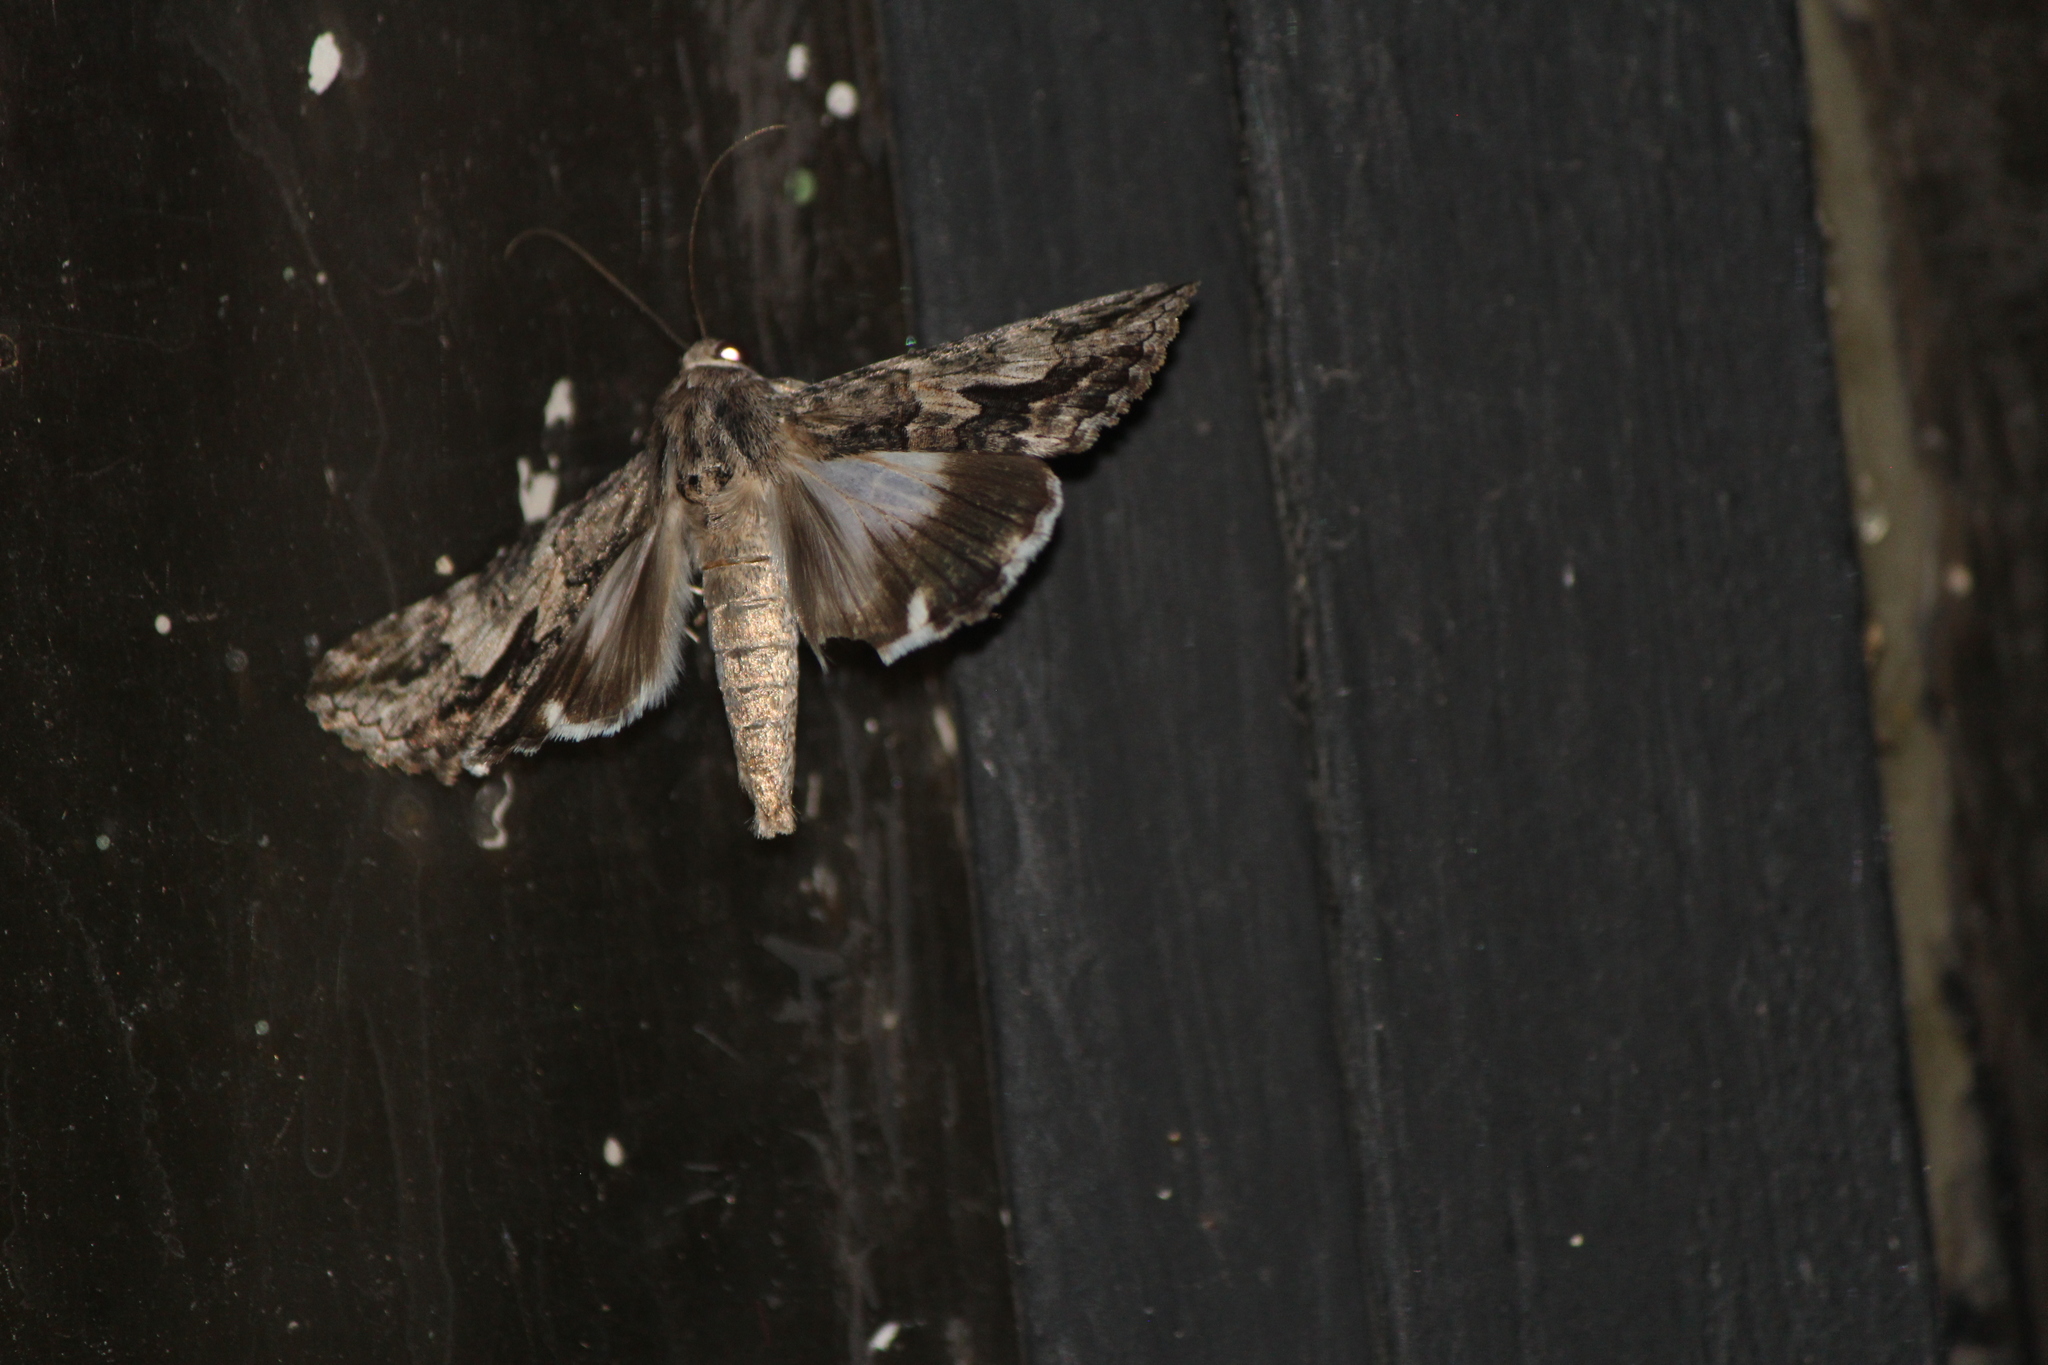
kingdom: Animalia
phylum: Arthropoda
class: Insecta
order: Lepidoptera
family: Erebidae
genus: Melipotis
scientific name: Melipotis jucunda
